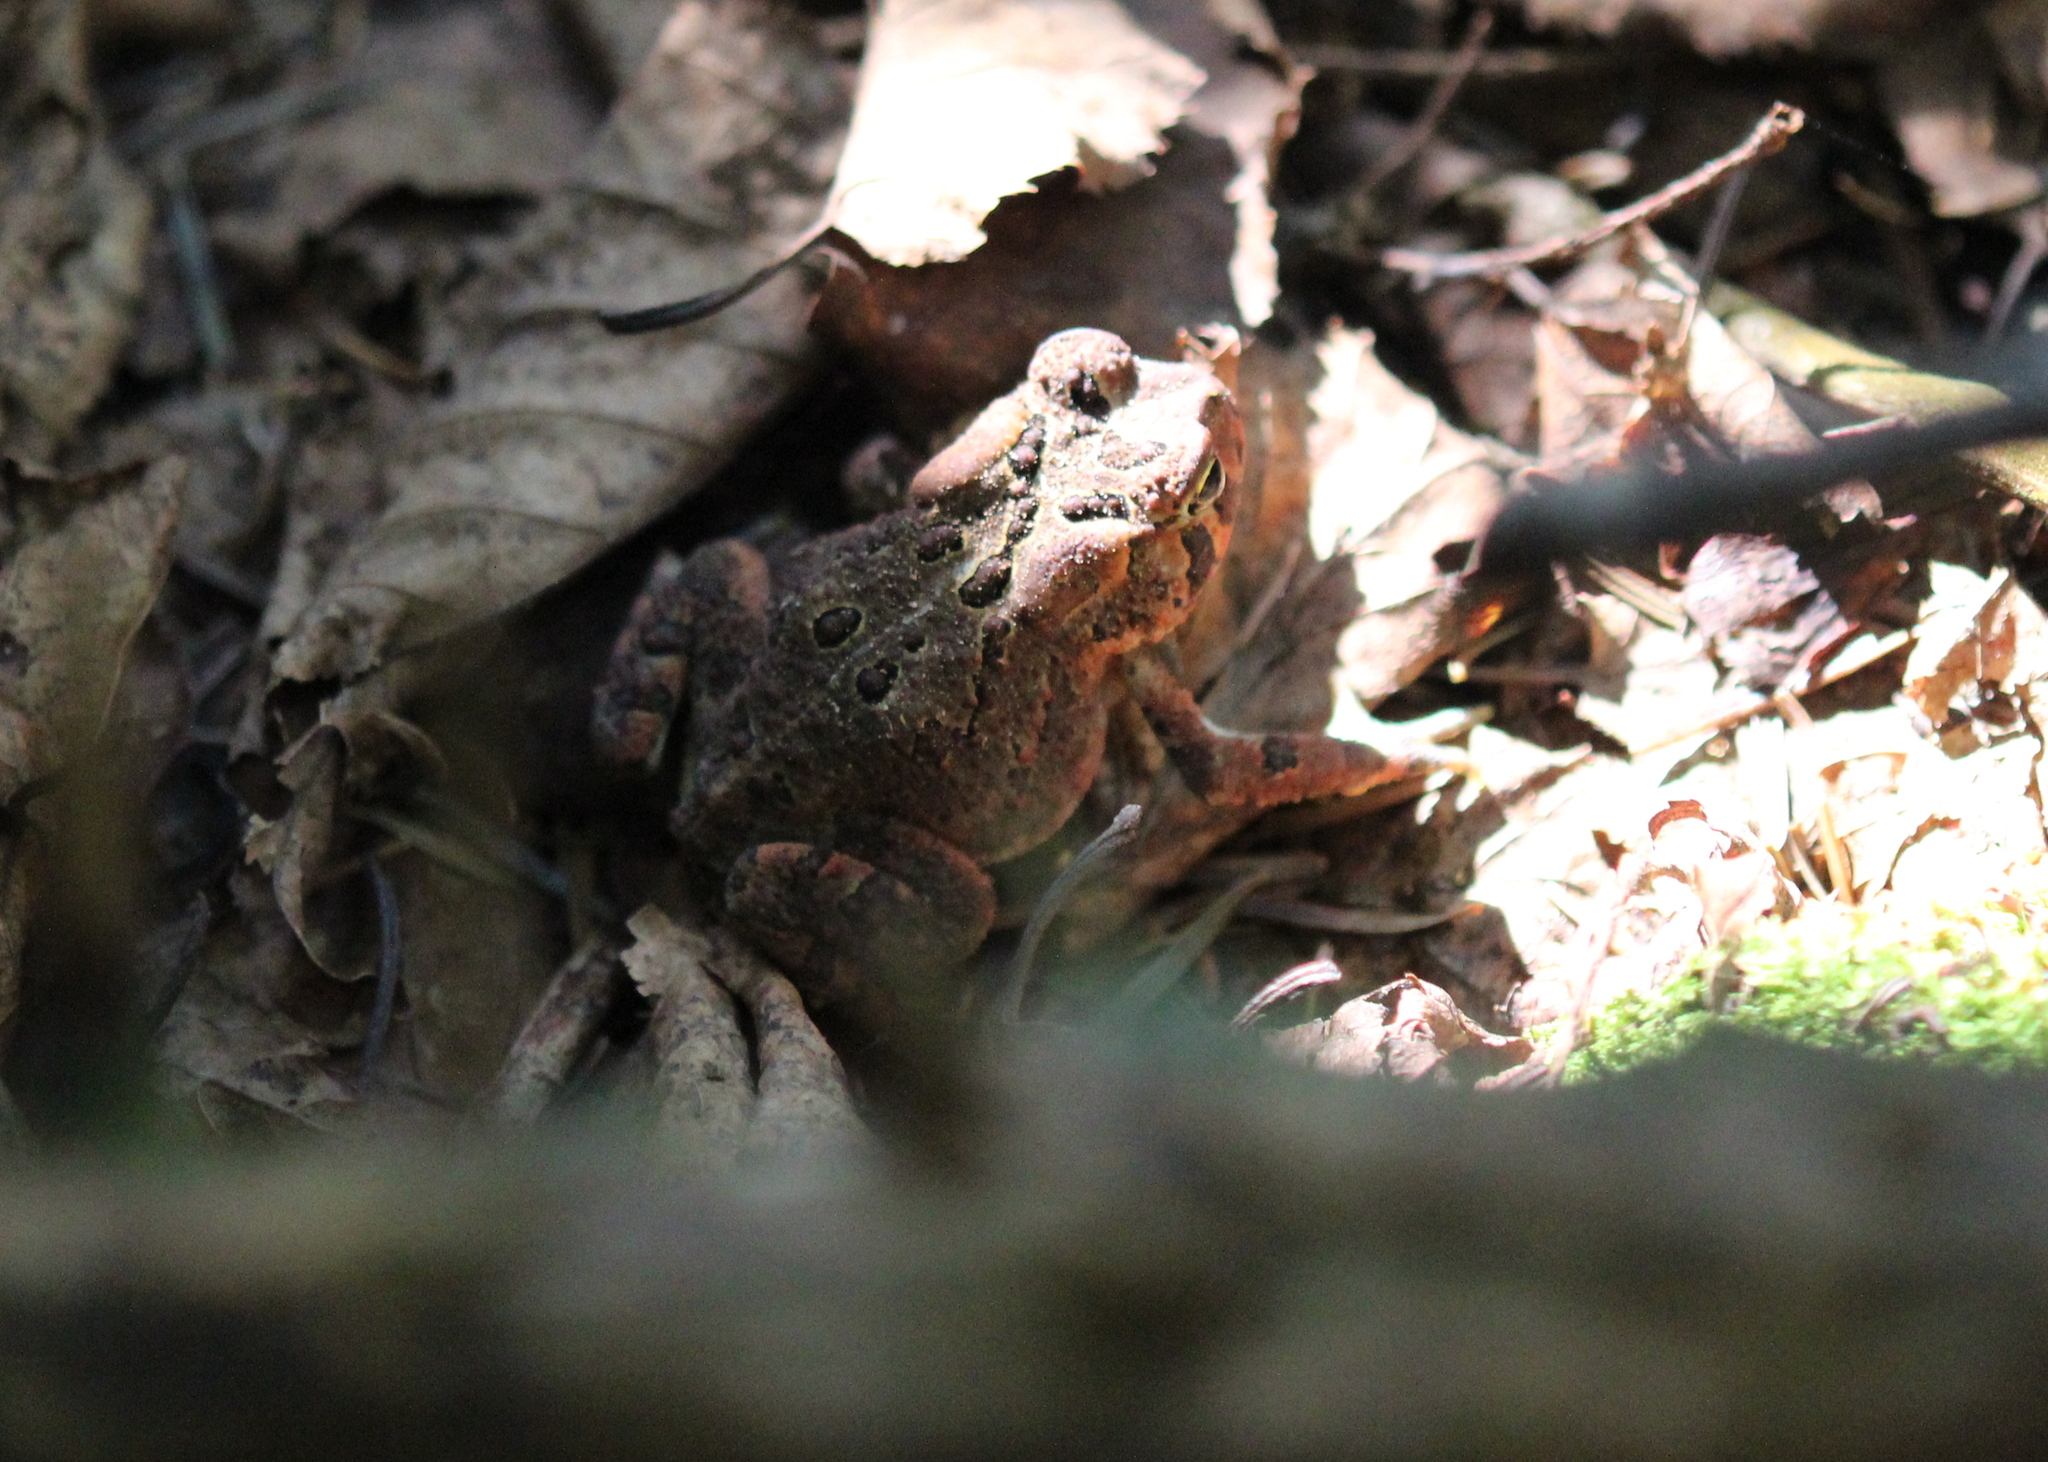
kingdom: Animalia
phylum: Chordata
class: Amphibia
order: Anura
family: Bufonidae
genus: Anaxyrus
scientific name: Anaxyrus americanus
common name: American toad
